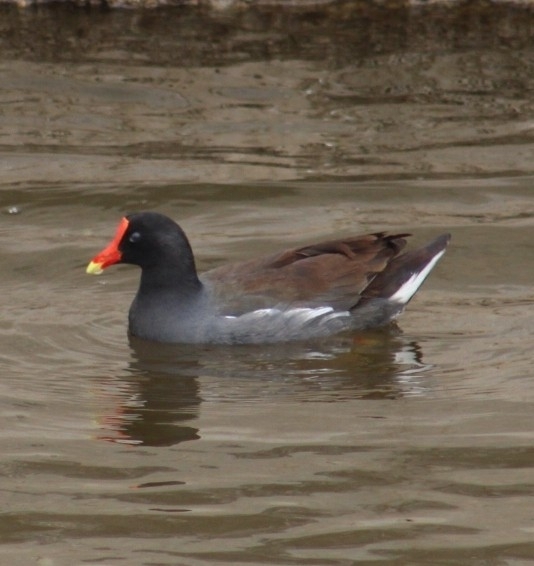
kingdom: Animalia
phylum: Chordata
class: Aves
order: Gruiformes
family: Rallidae
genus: Gallinula
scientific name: Gallinula chloropus
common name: Common moorhen
